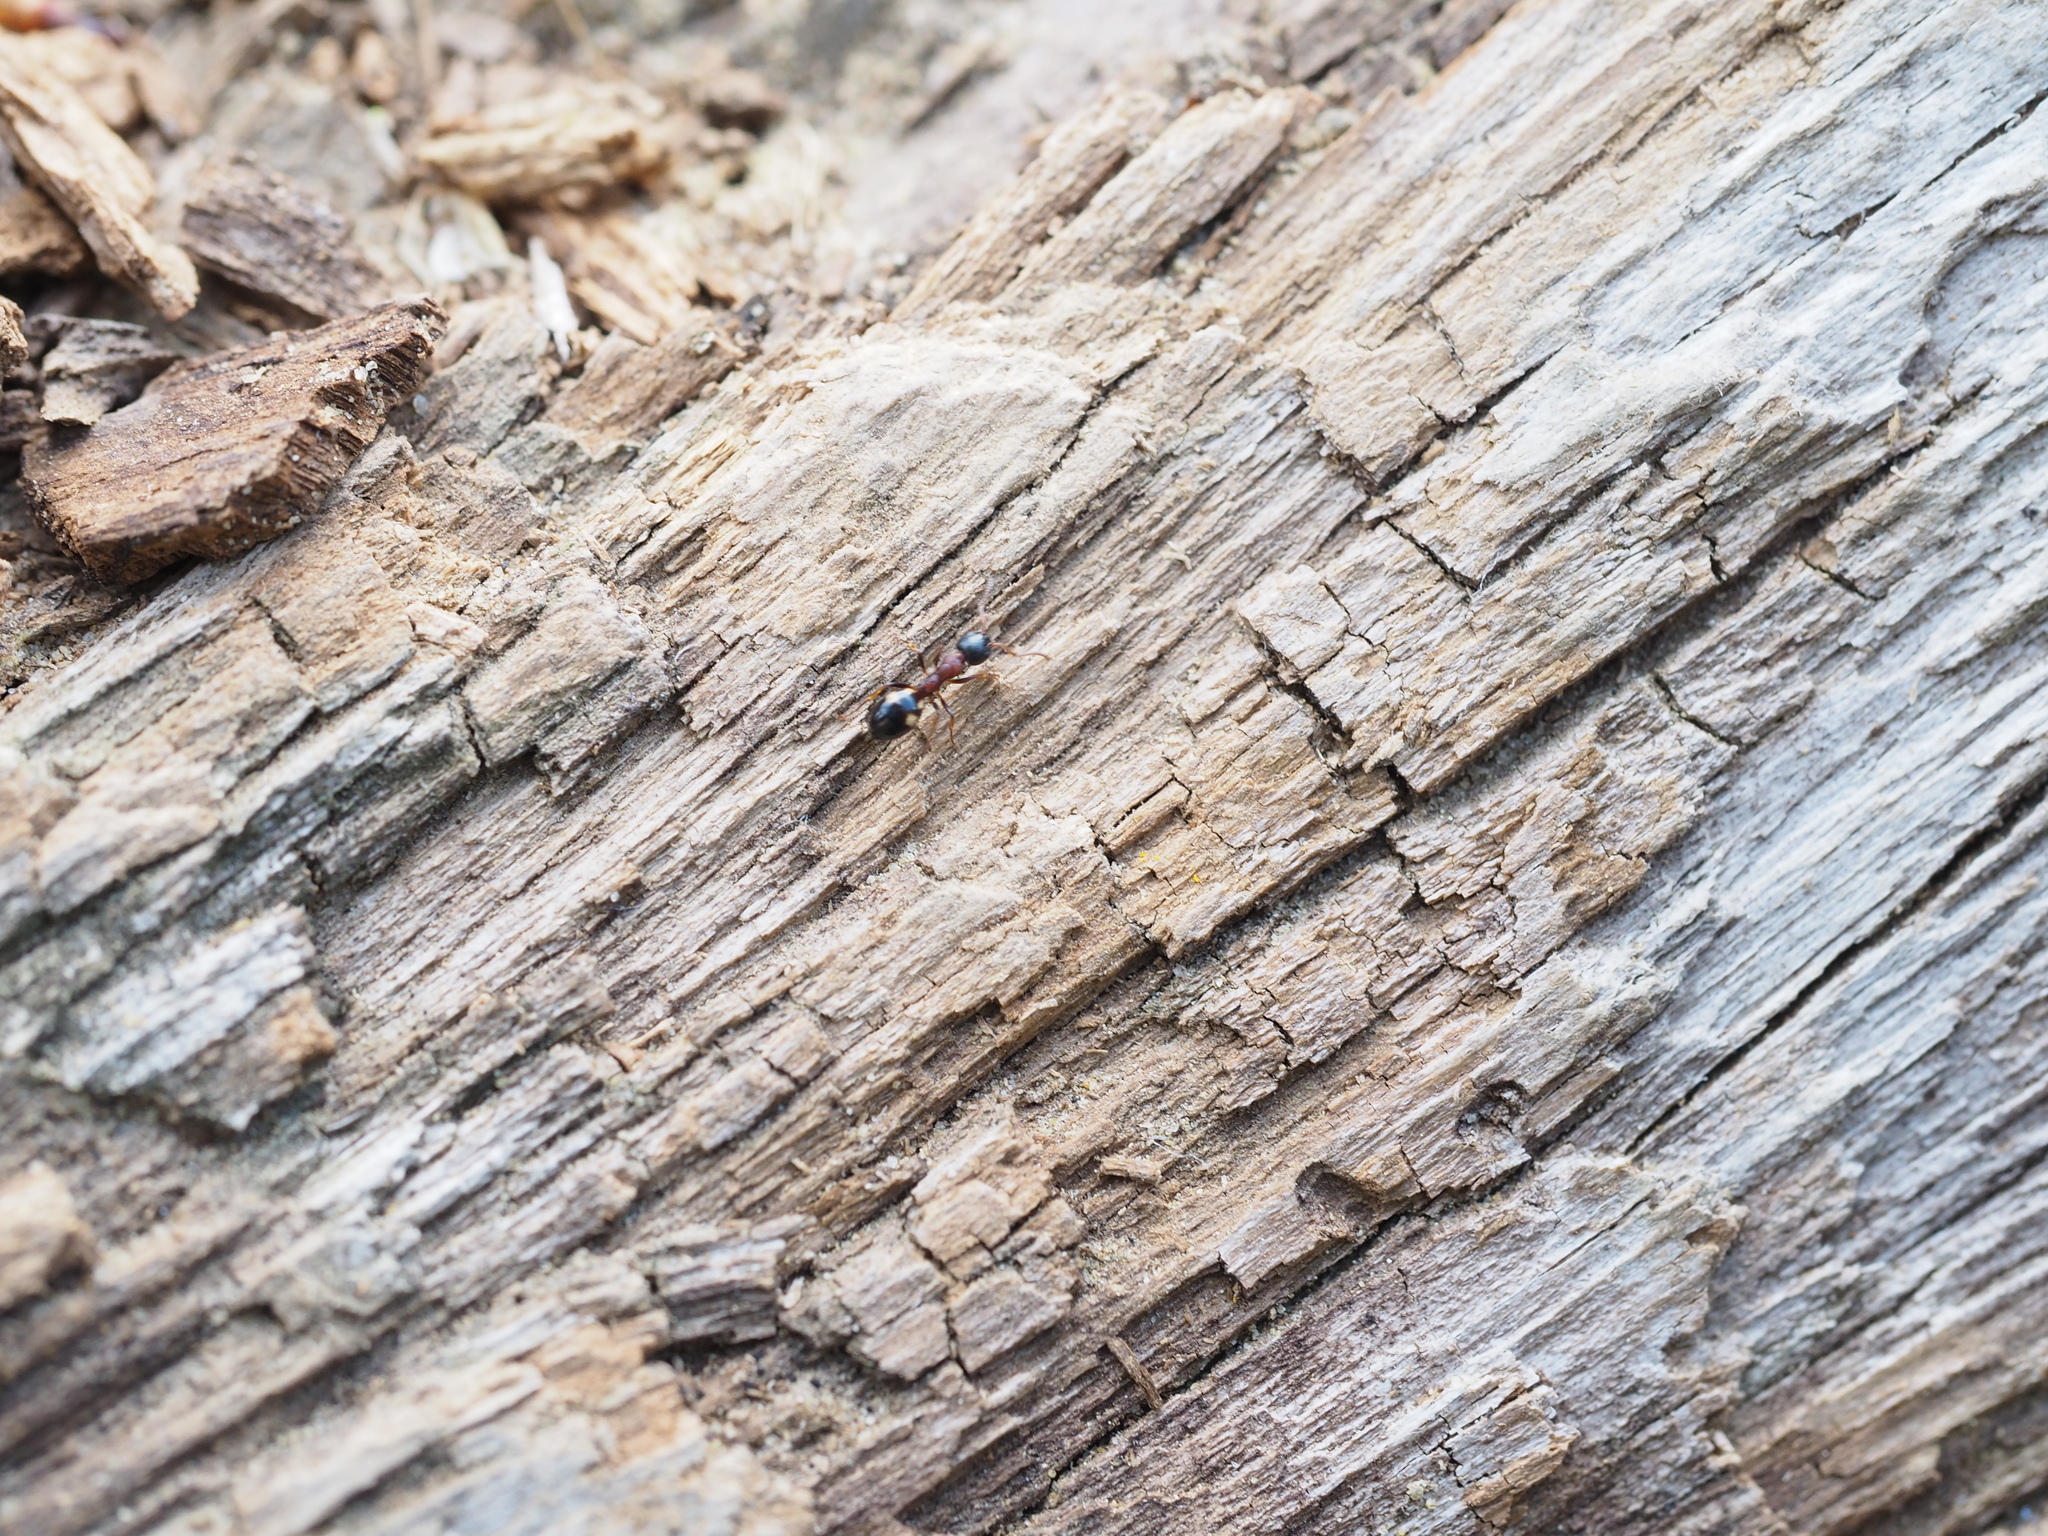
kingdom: Animalia
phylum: Arthropoda
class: Insecta
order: Hymenoptera
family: Formicidae
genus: Dolichoderus
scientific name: Dolichoderus quadripunctatus
